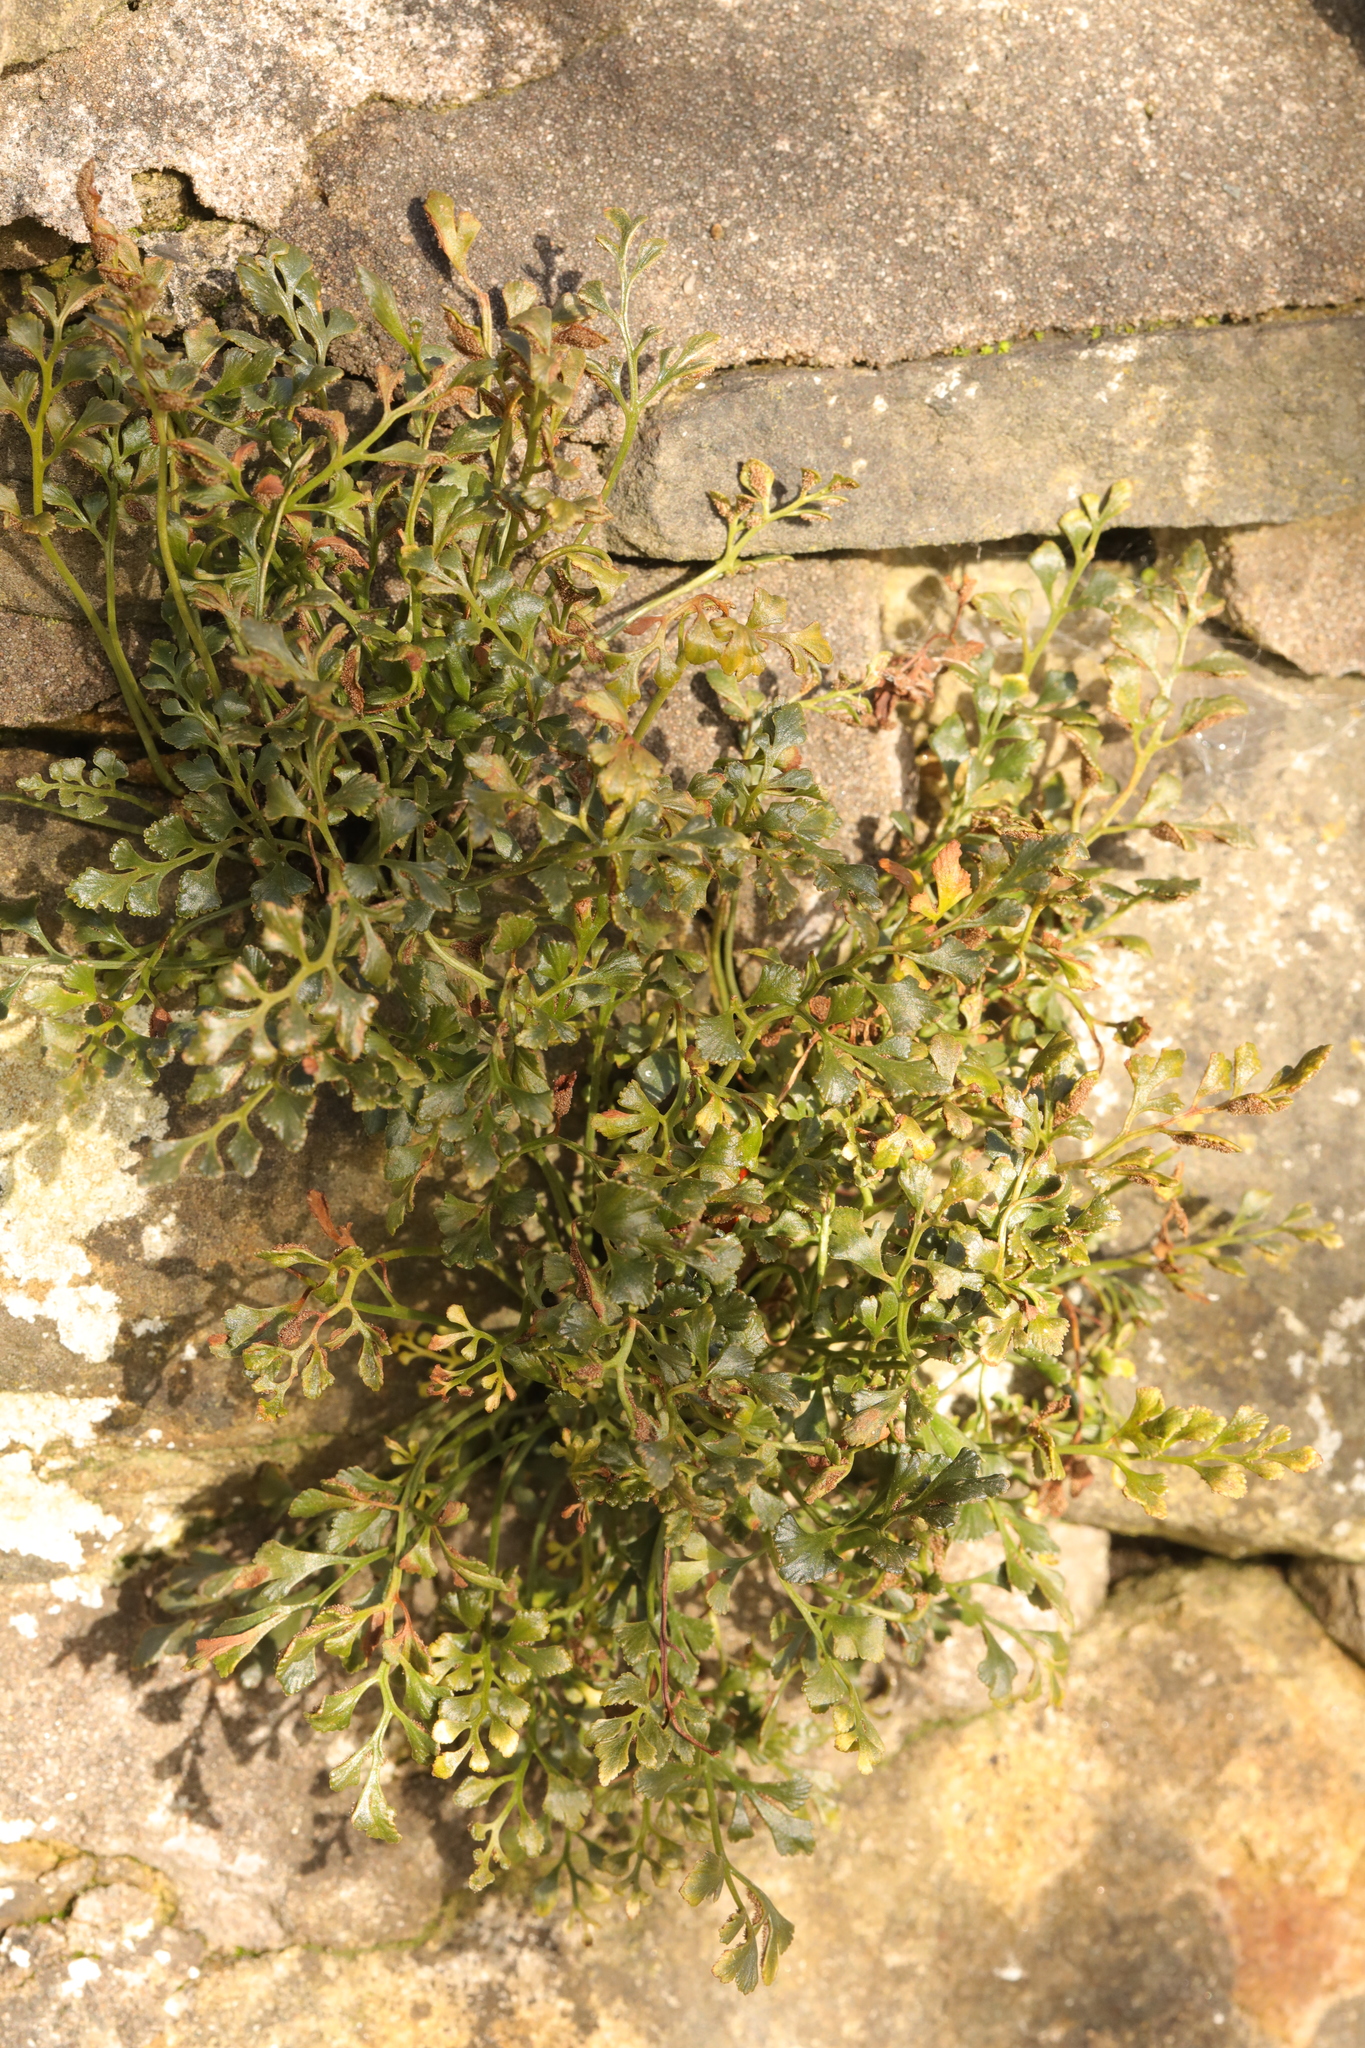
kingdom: Plantae
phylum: Tracheophyta
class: Polypodiopsida
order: Polypodiales
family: Aspleniaceae
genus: Asplenium
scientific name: Asplenium ruta-muraria
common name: Wall-rue
